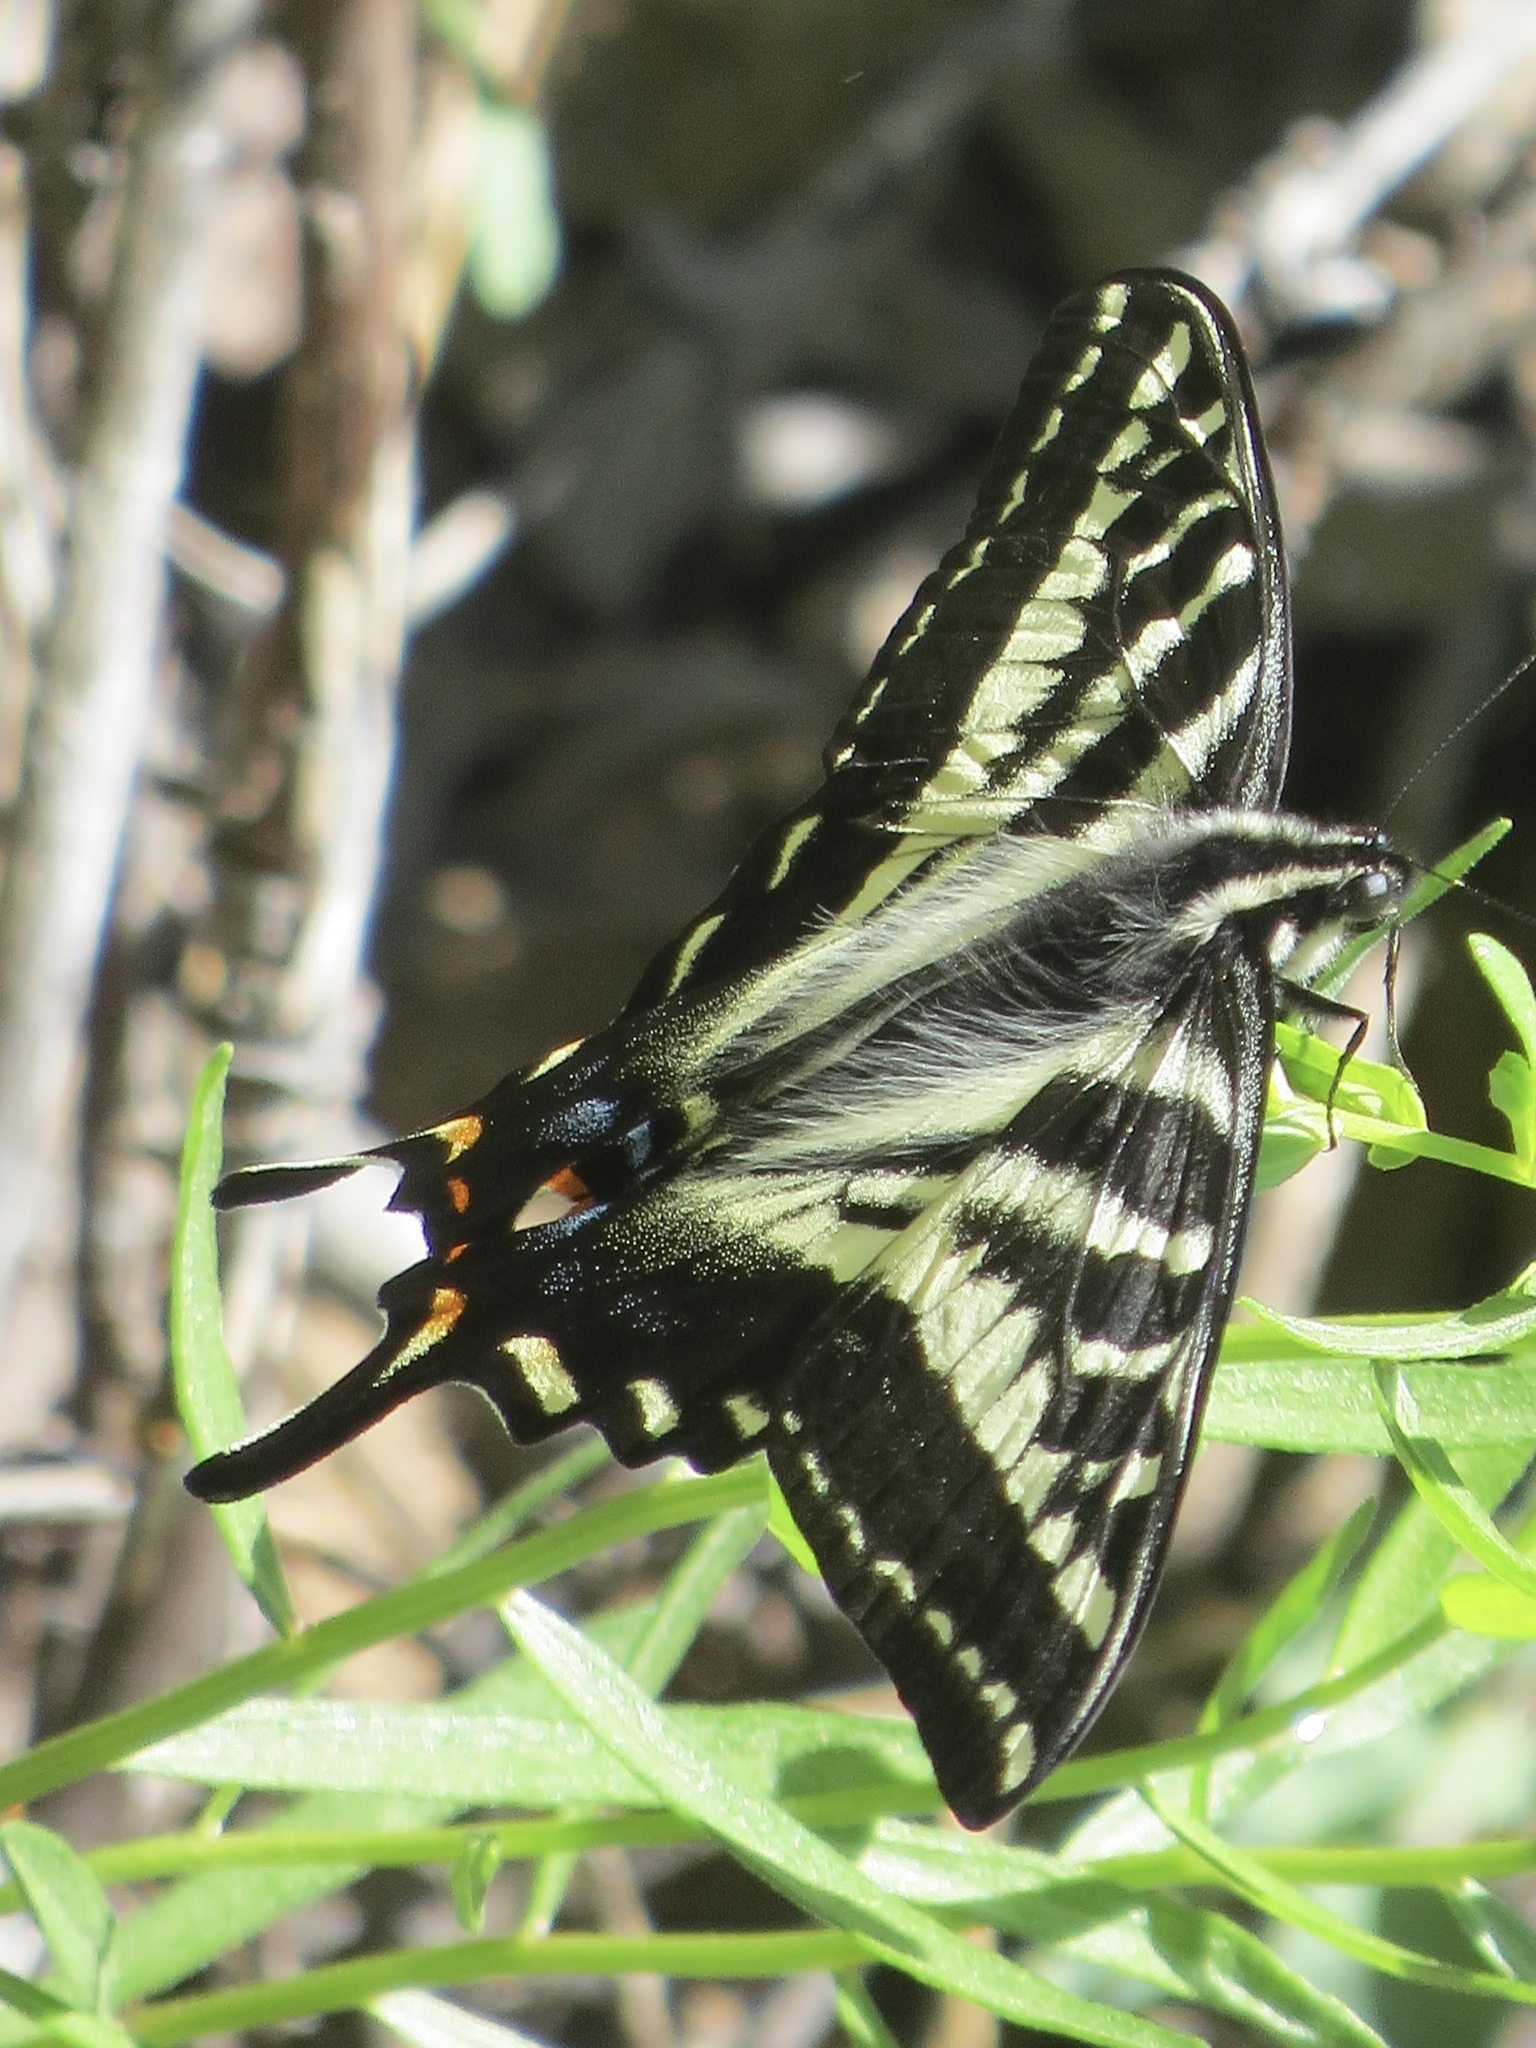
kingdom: Animalia
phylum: Arthropoda
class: Insecta
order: Lepidoptera
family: Papilionidae
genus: Papilio
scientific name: Papilio eurymedon
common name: Pale tiger swallowtail
